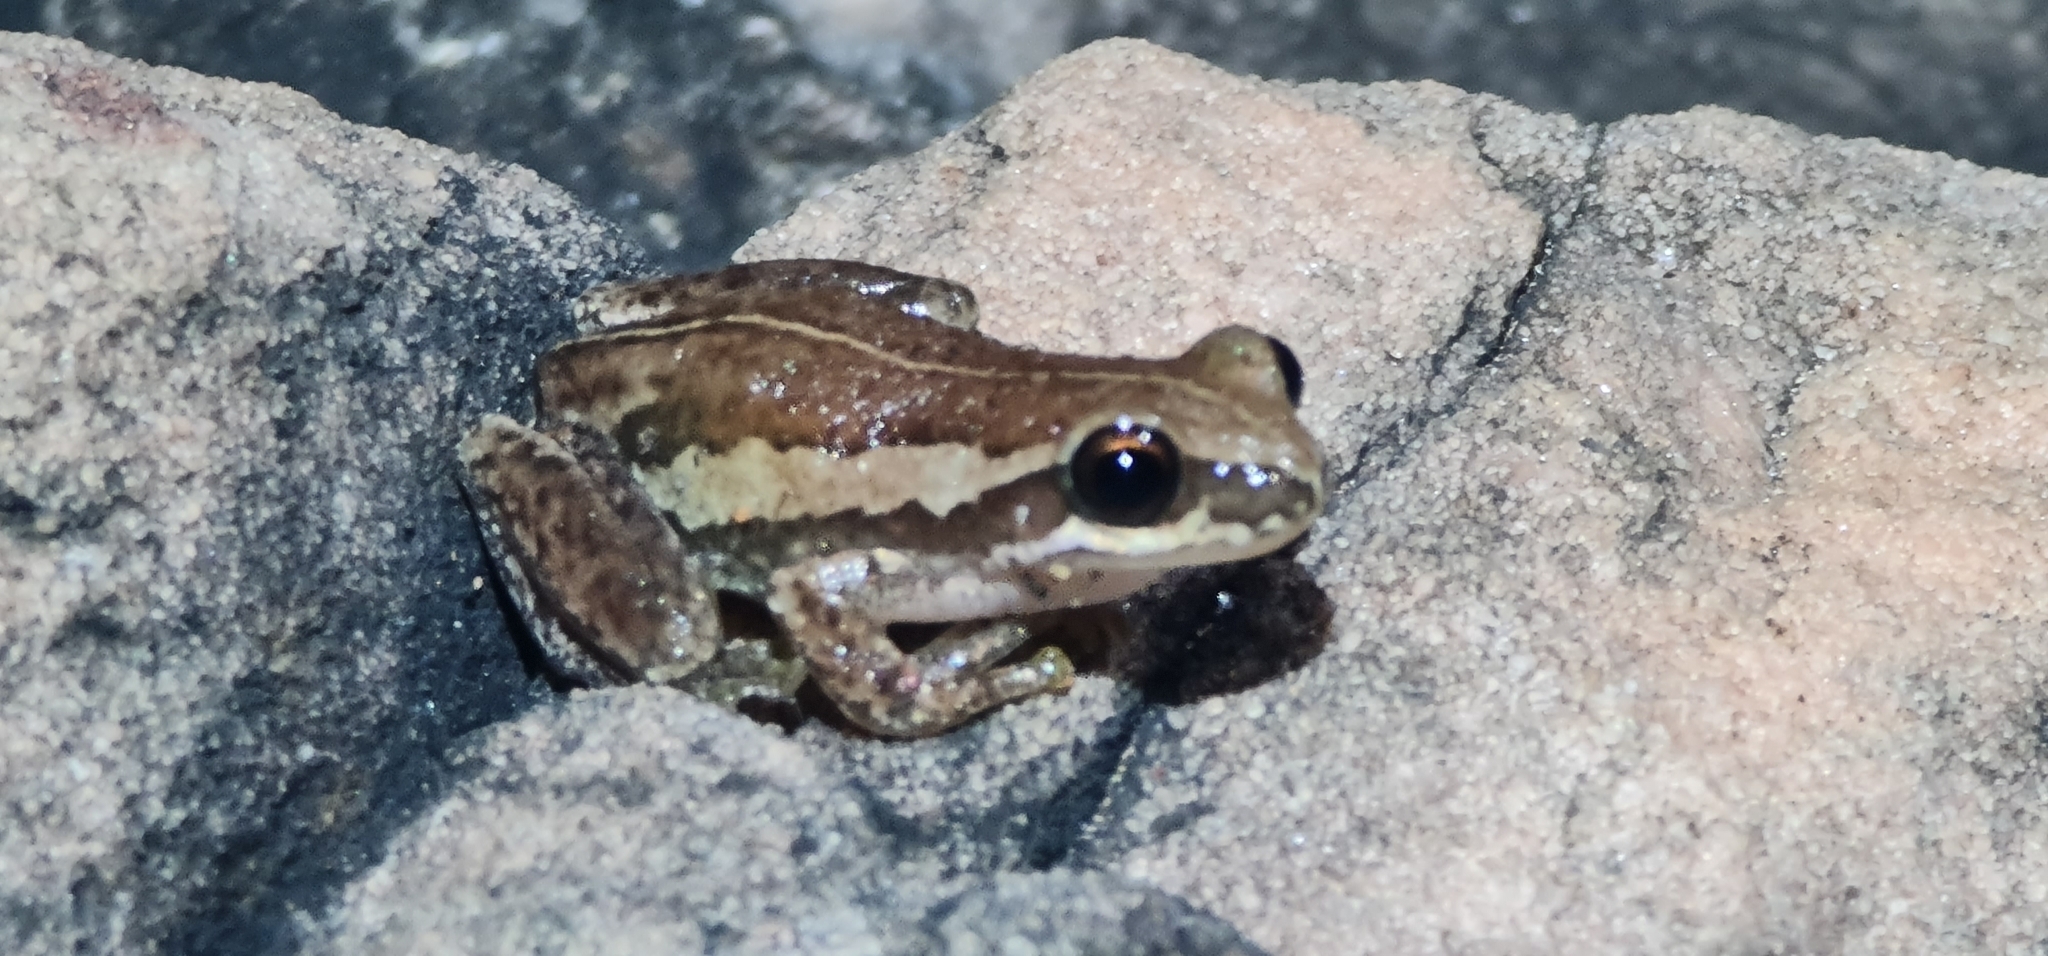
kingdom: Animalia
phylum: Chordata
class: Amphibia
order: Anura
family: Pelodryadidae
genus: Litoria
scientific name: Litoria rubella
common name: Desert tree frog
